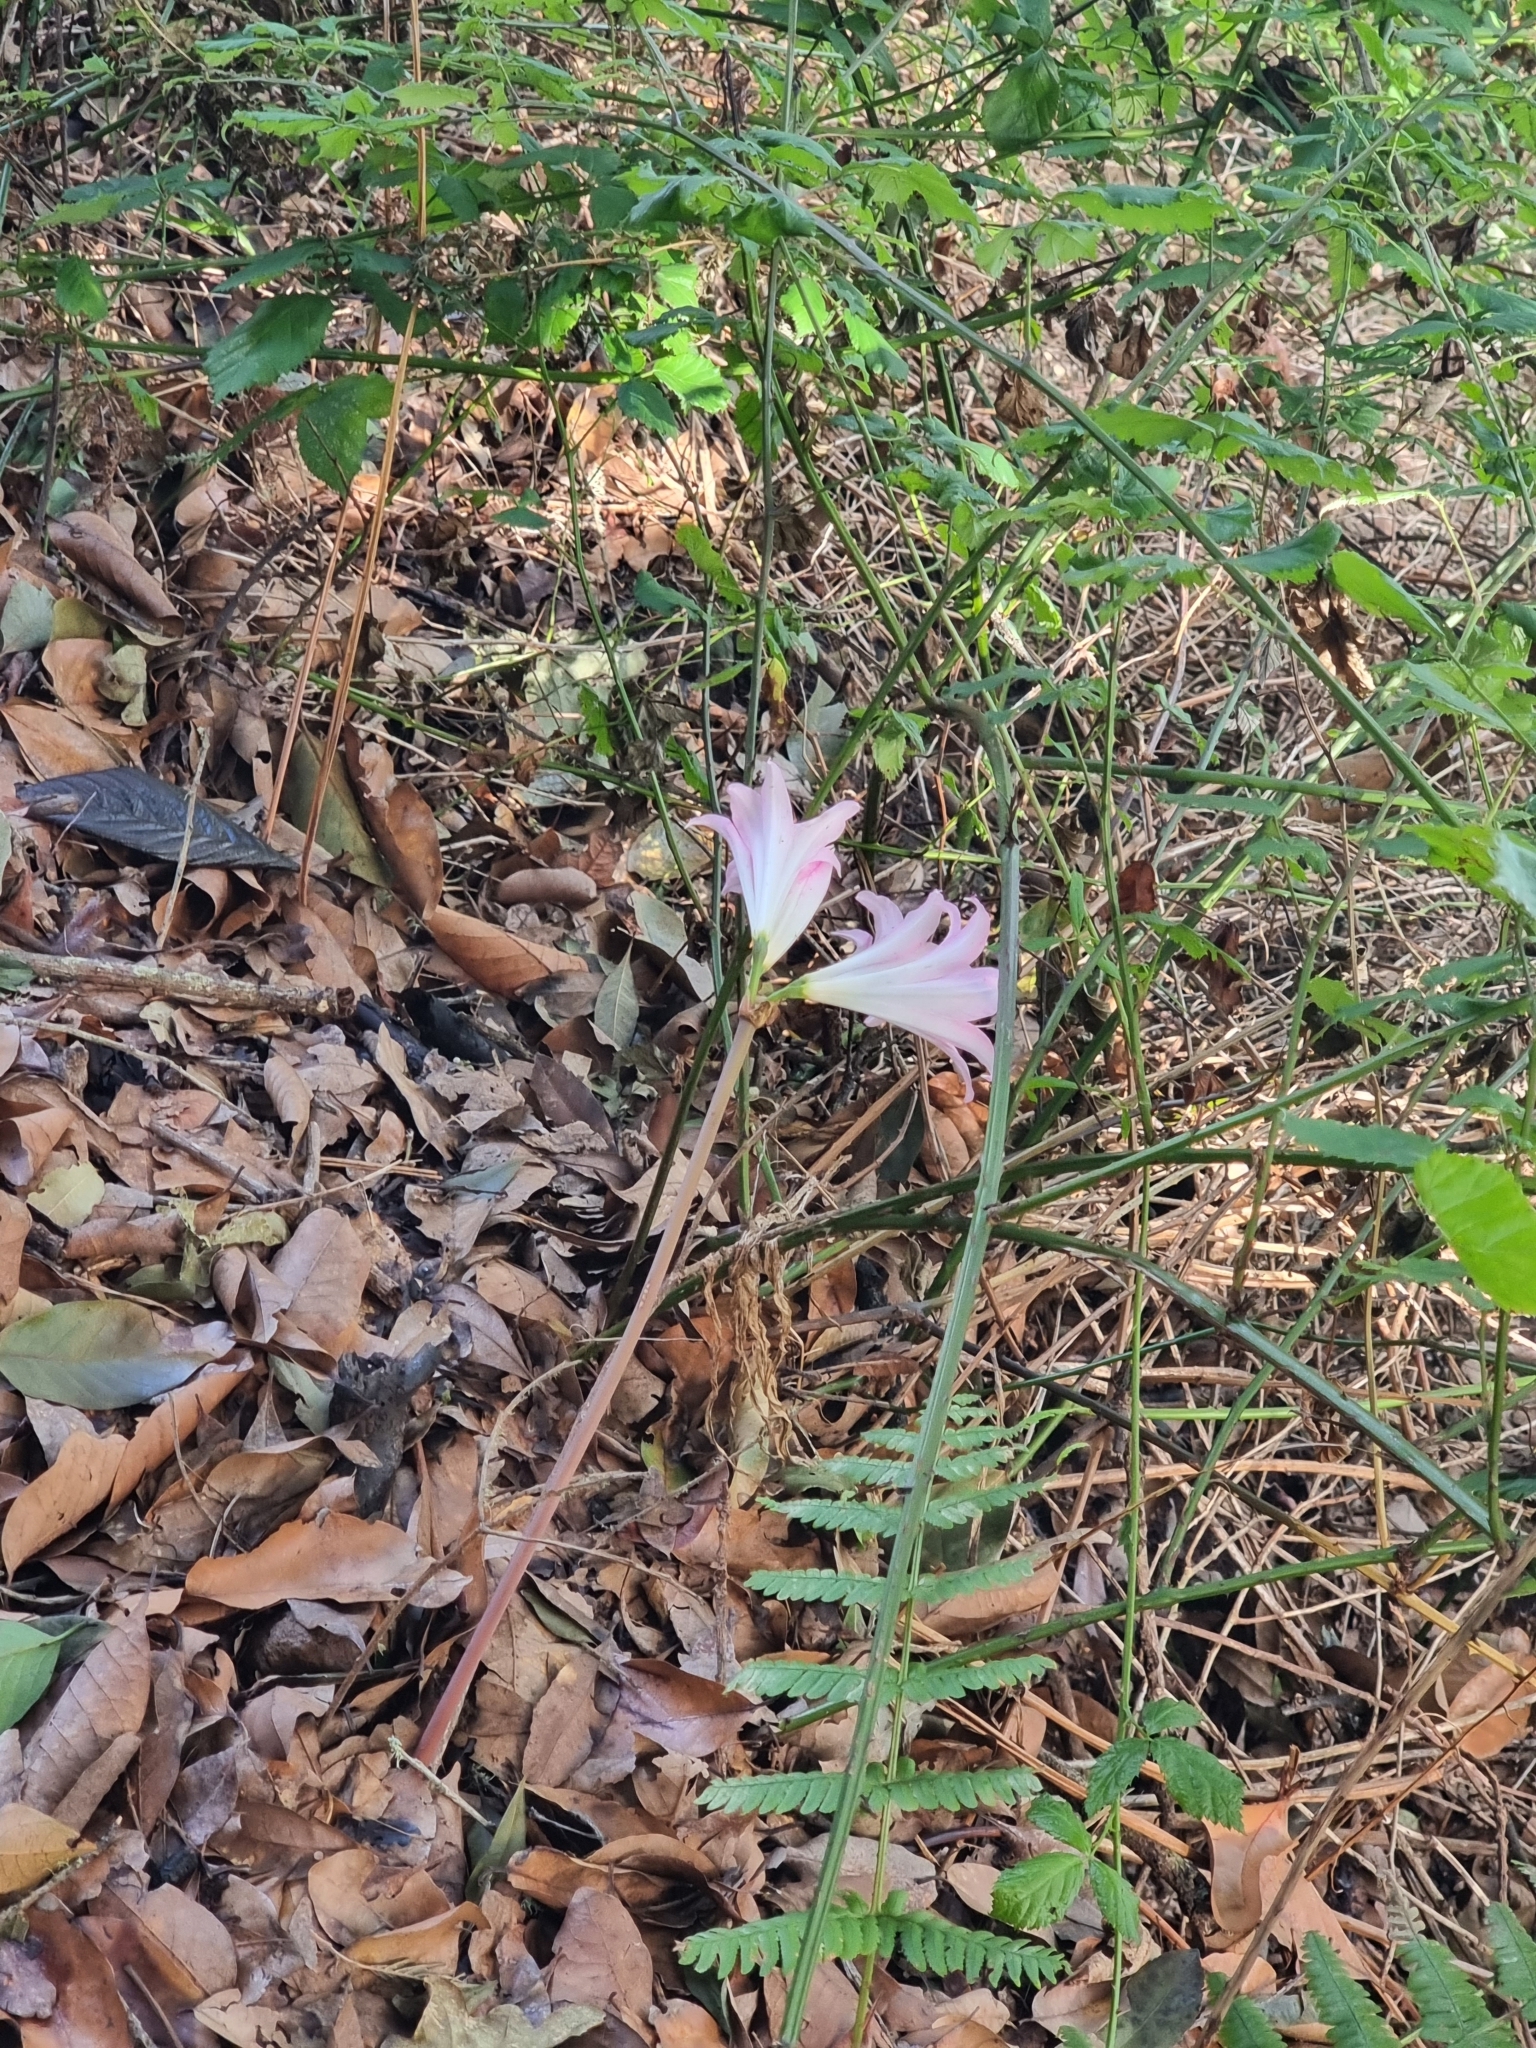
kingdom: Plantae
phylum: Tracheophyta
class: Liliopsida
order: Asparagales
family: Amaryllidaceae
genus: Amaryllis
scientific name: Amaryllis belladonna
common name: Jersey lily
